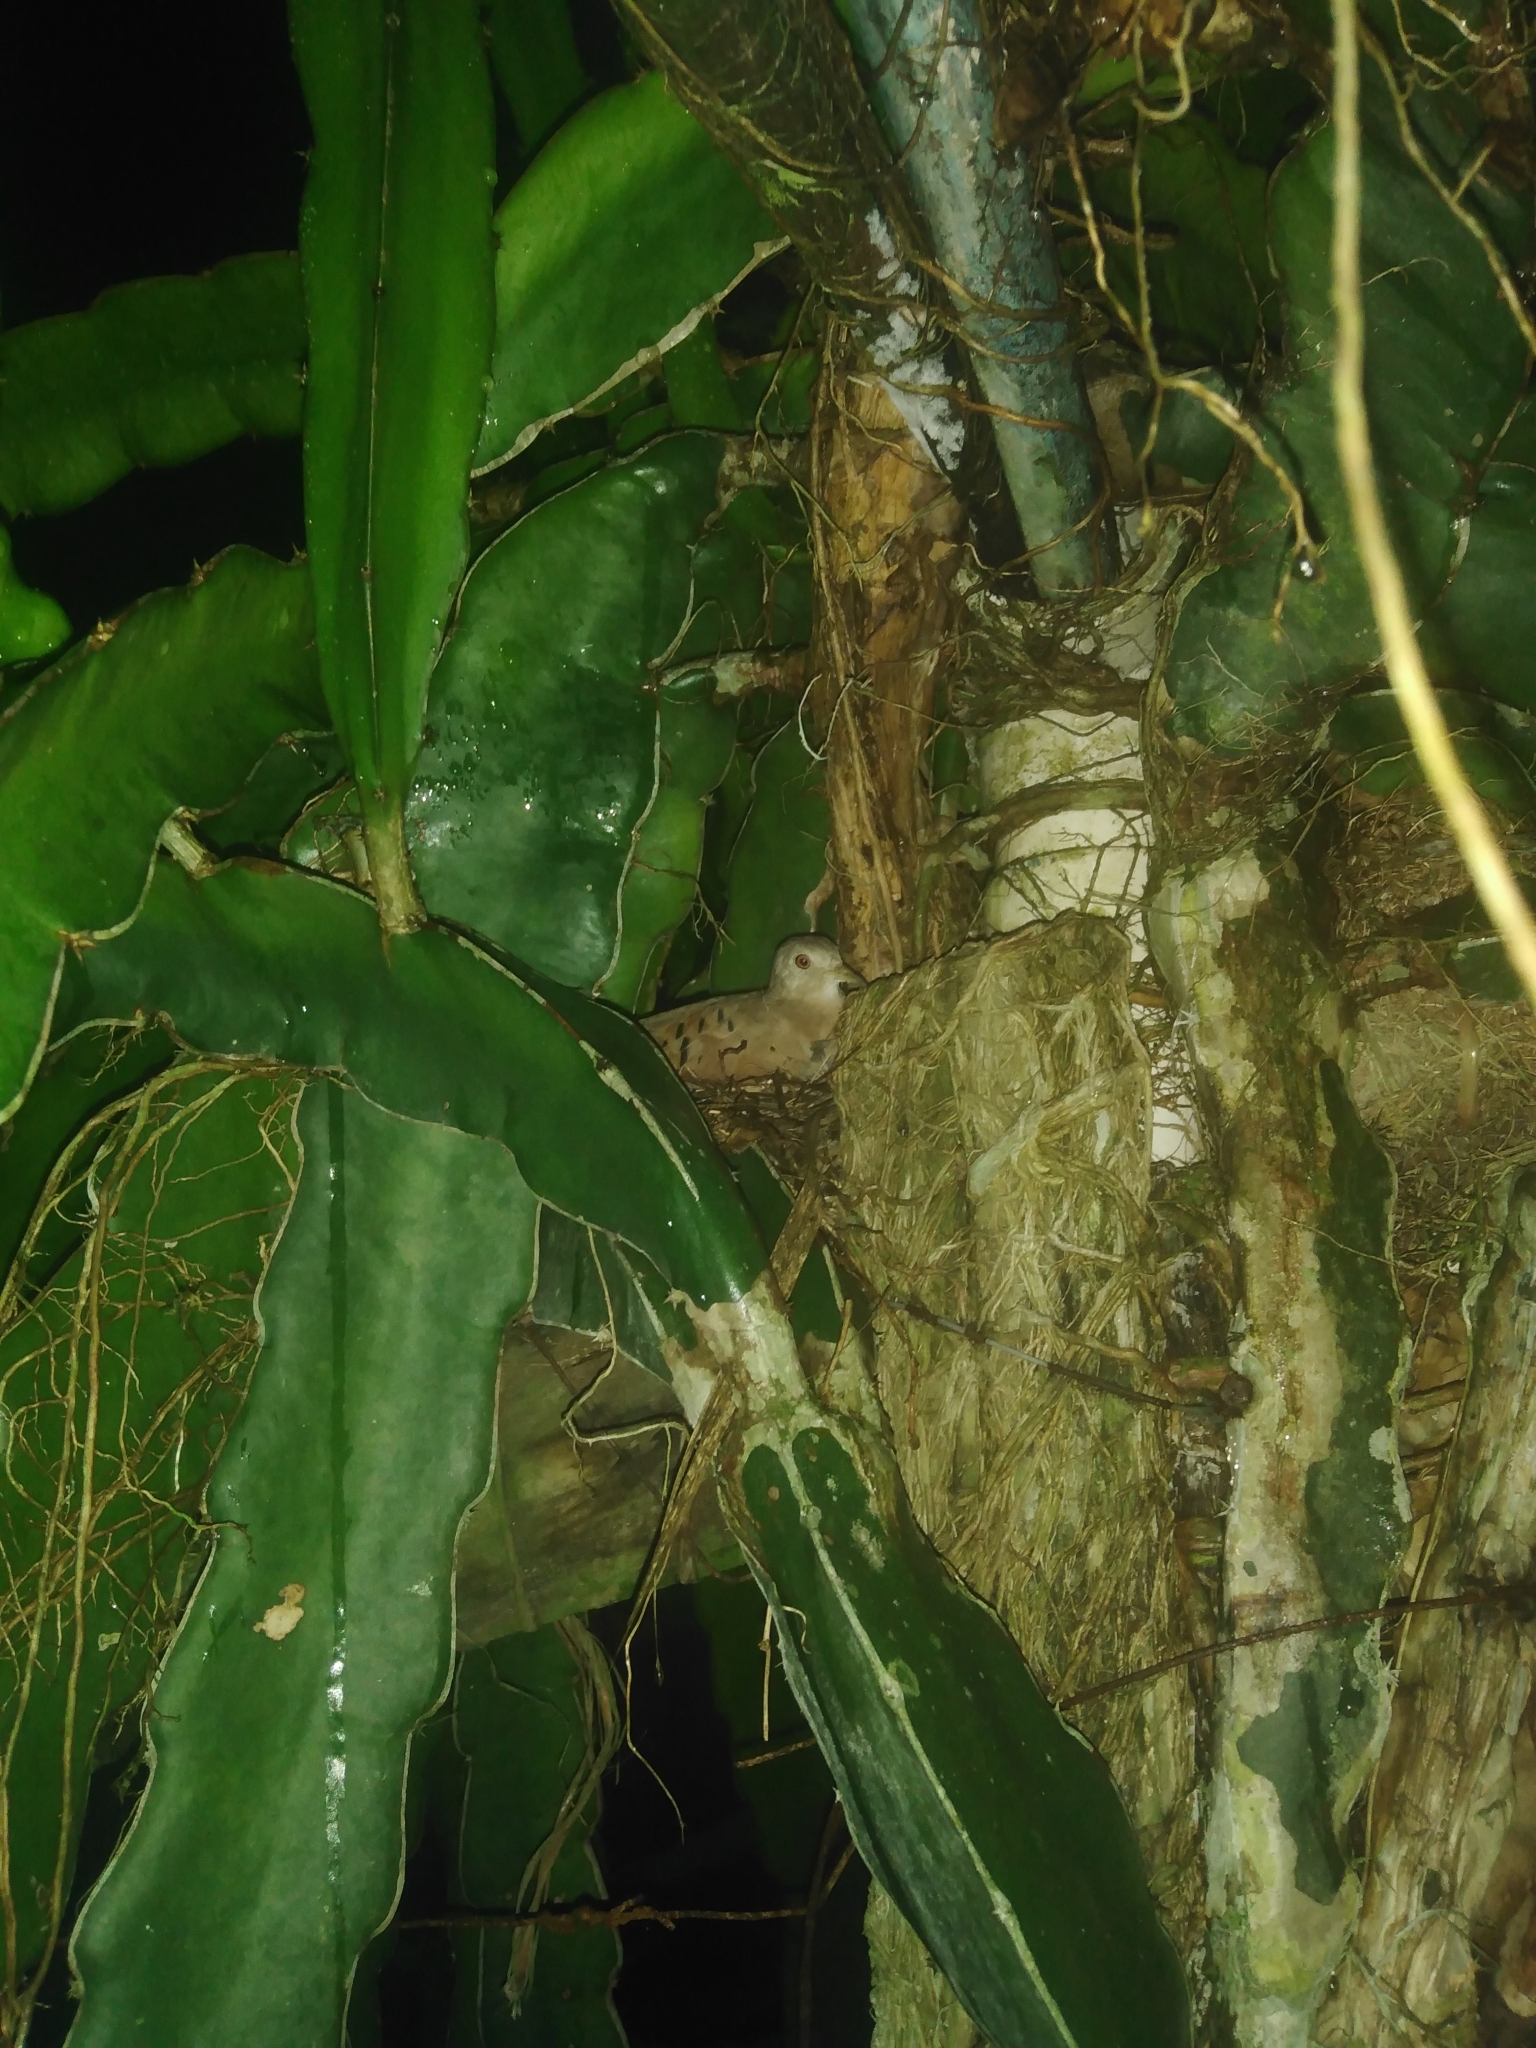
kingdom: Animalia
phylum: Chordata
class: Aves
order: Columbiformes
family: Columbidae
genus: Columbina
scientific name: Columbina talpacoti
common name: Ruddy ground dove
